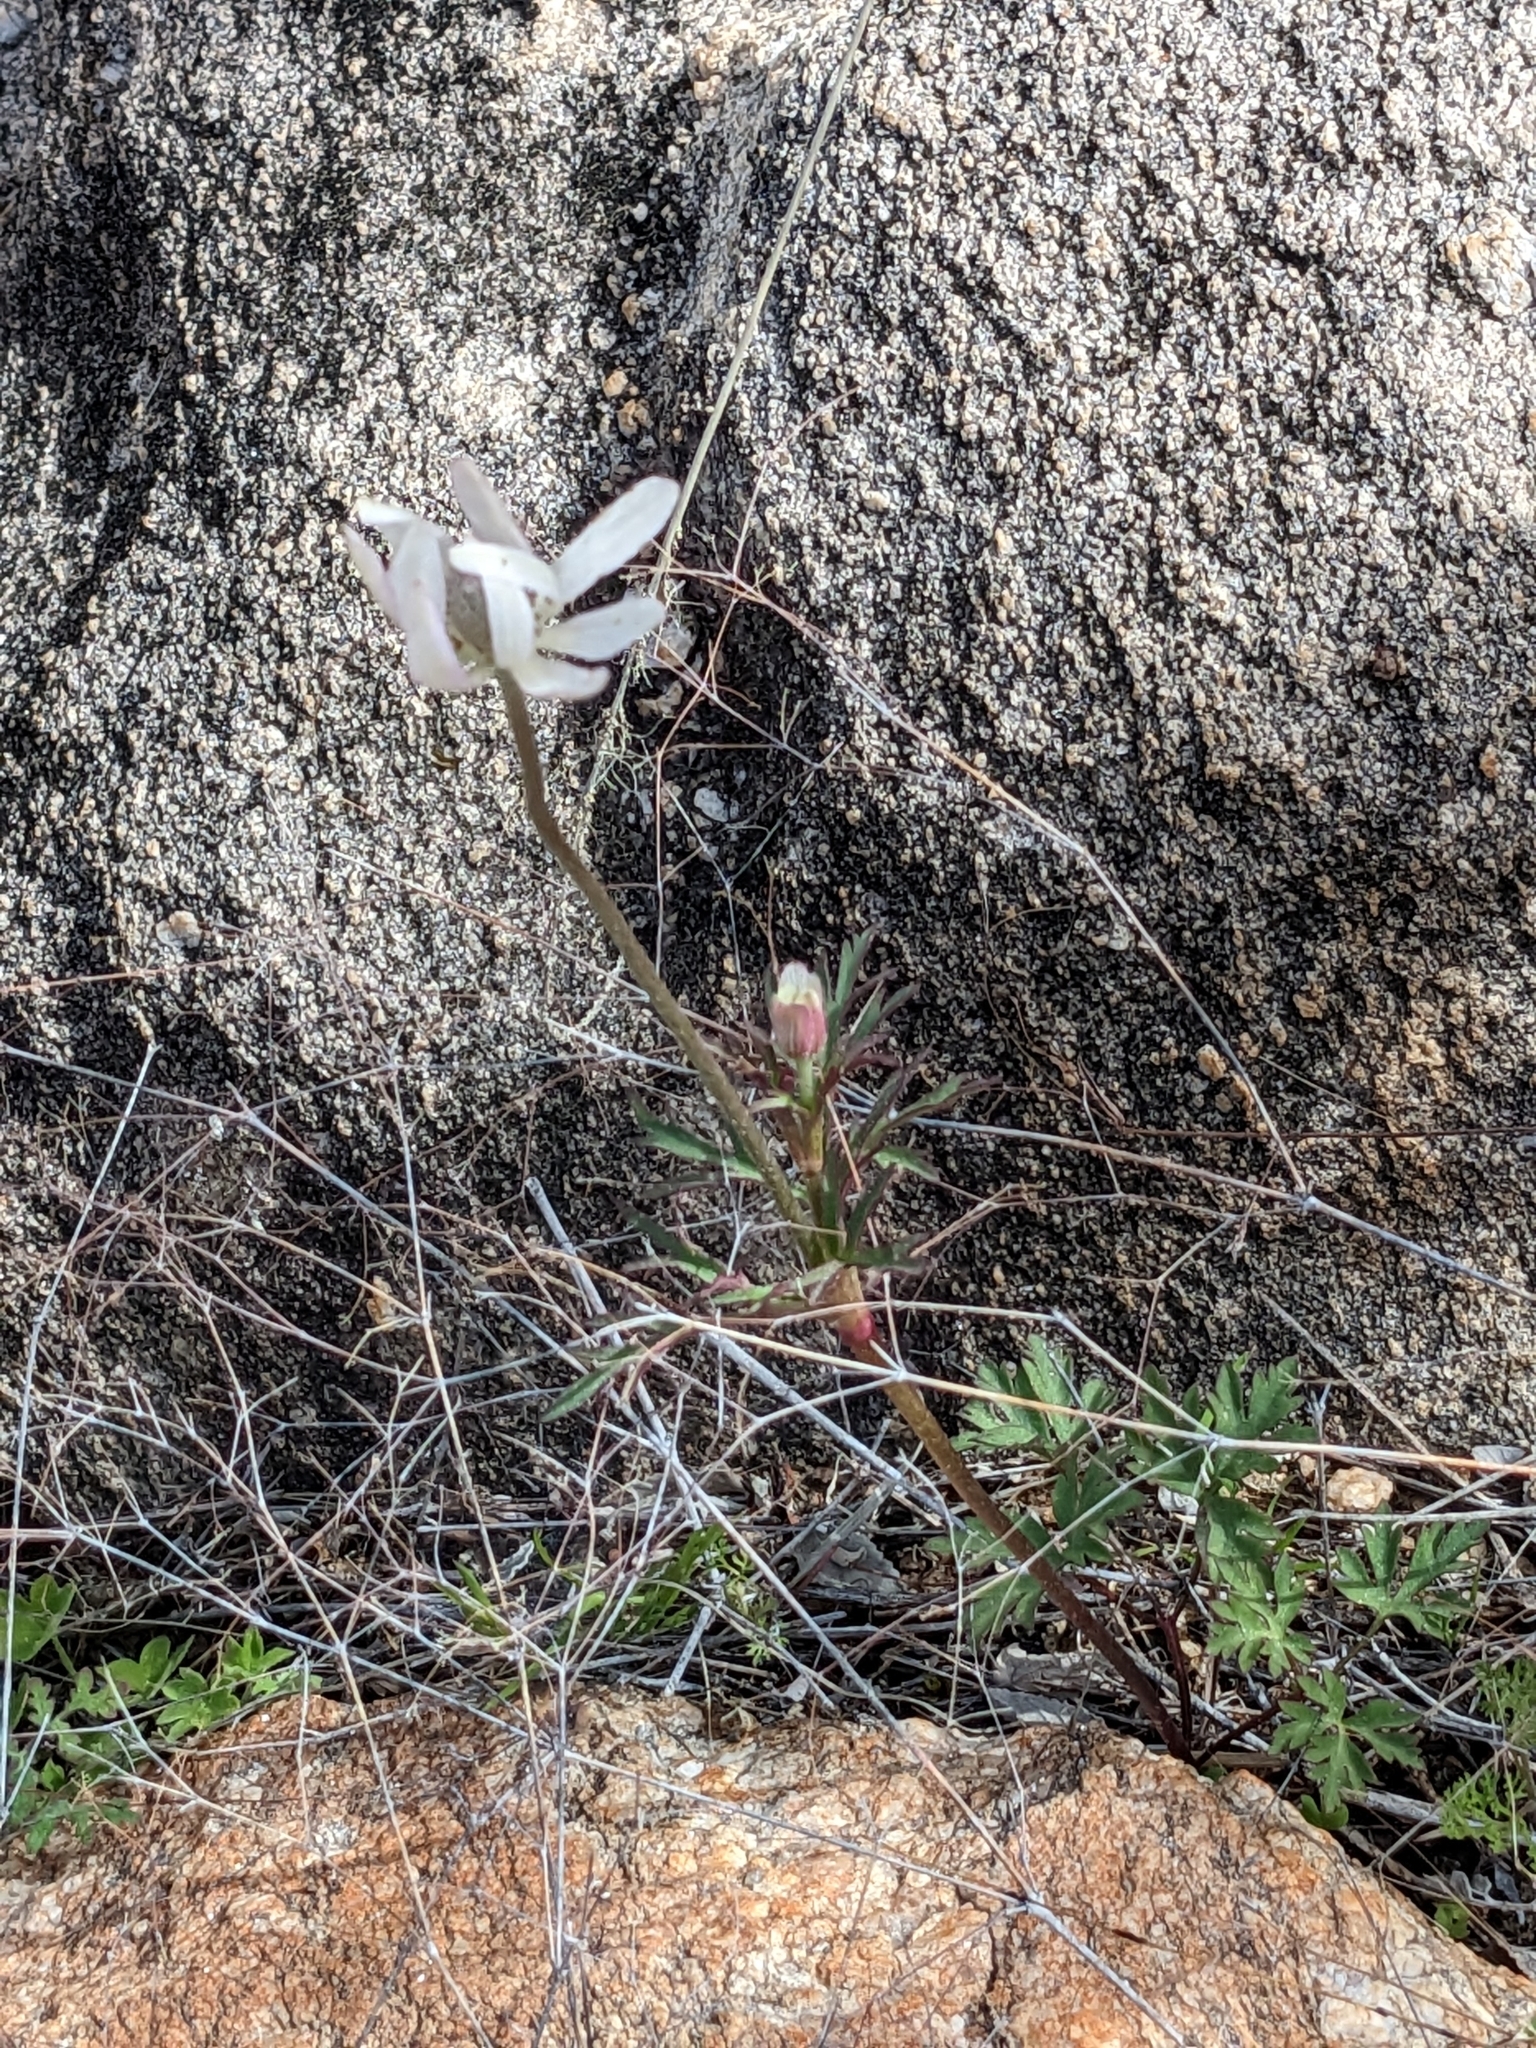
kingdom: Plantae
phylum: Tracheophyta
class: Magnoliopsida
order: Ranunculales
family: Ranunculaceae
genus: Anemone
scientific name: Anemone tuberosa
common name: Desert anemone
